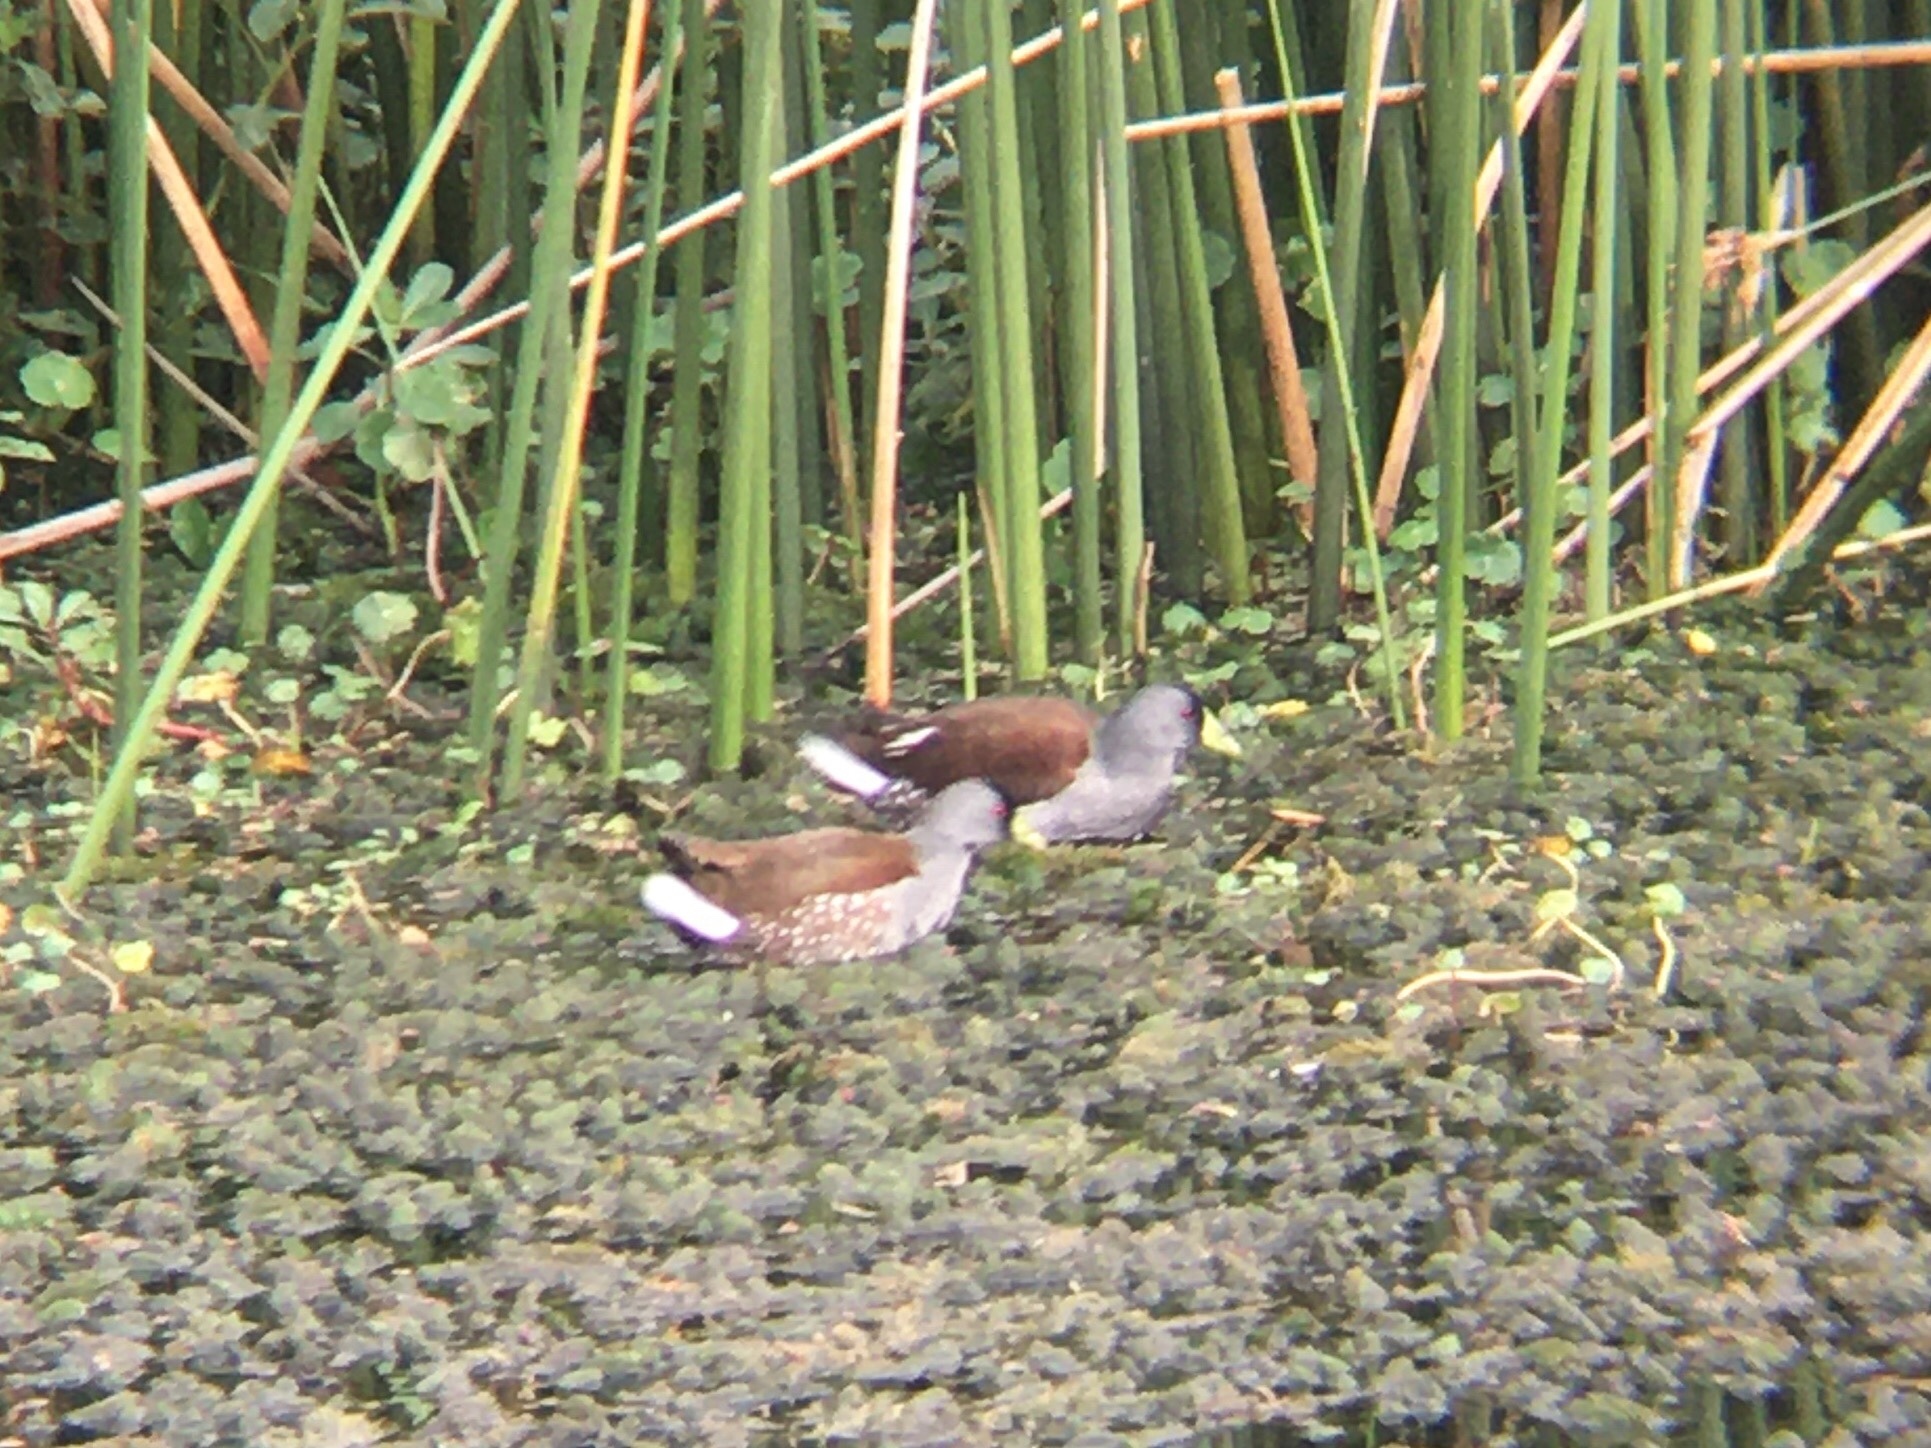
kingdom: Animalia
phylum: Chordata
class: Aves
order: Gruiformes
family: Rallidae
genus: Gallinula
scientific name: Gallinula melanops
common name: Spot-flanked gallinule
